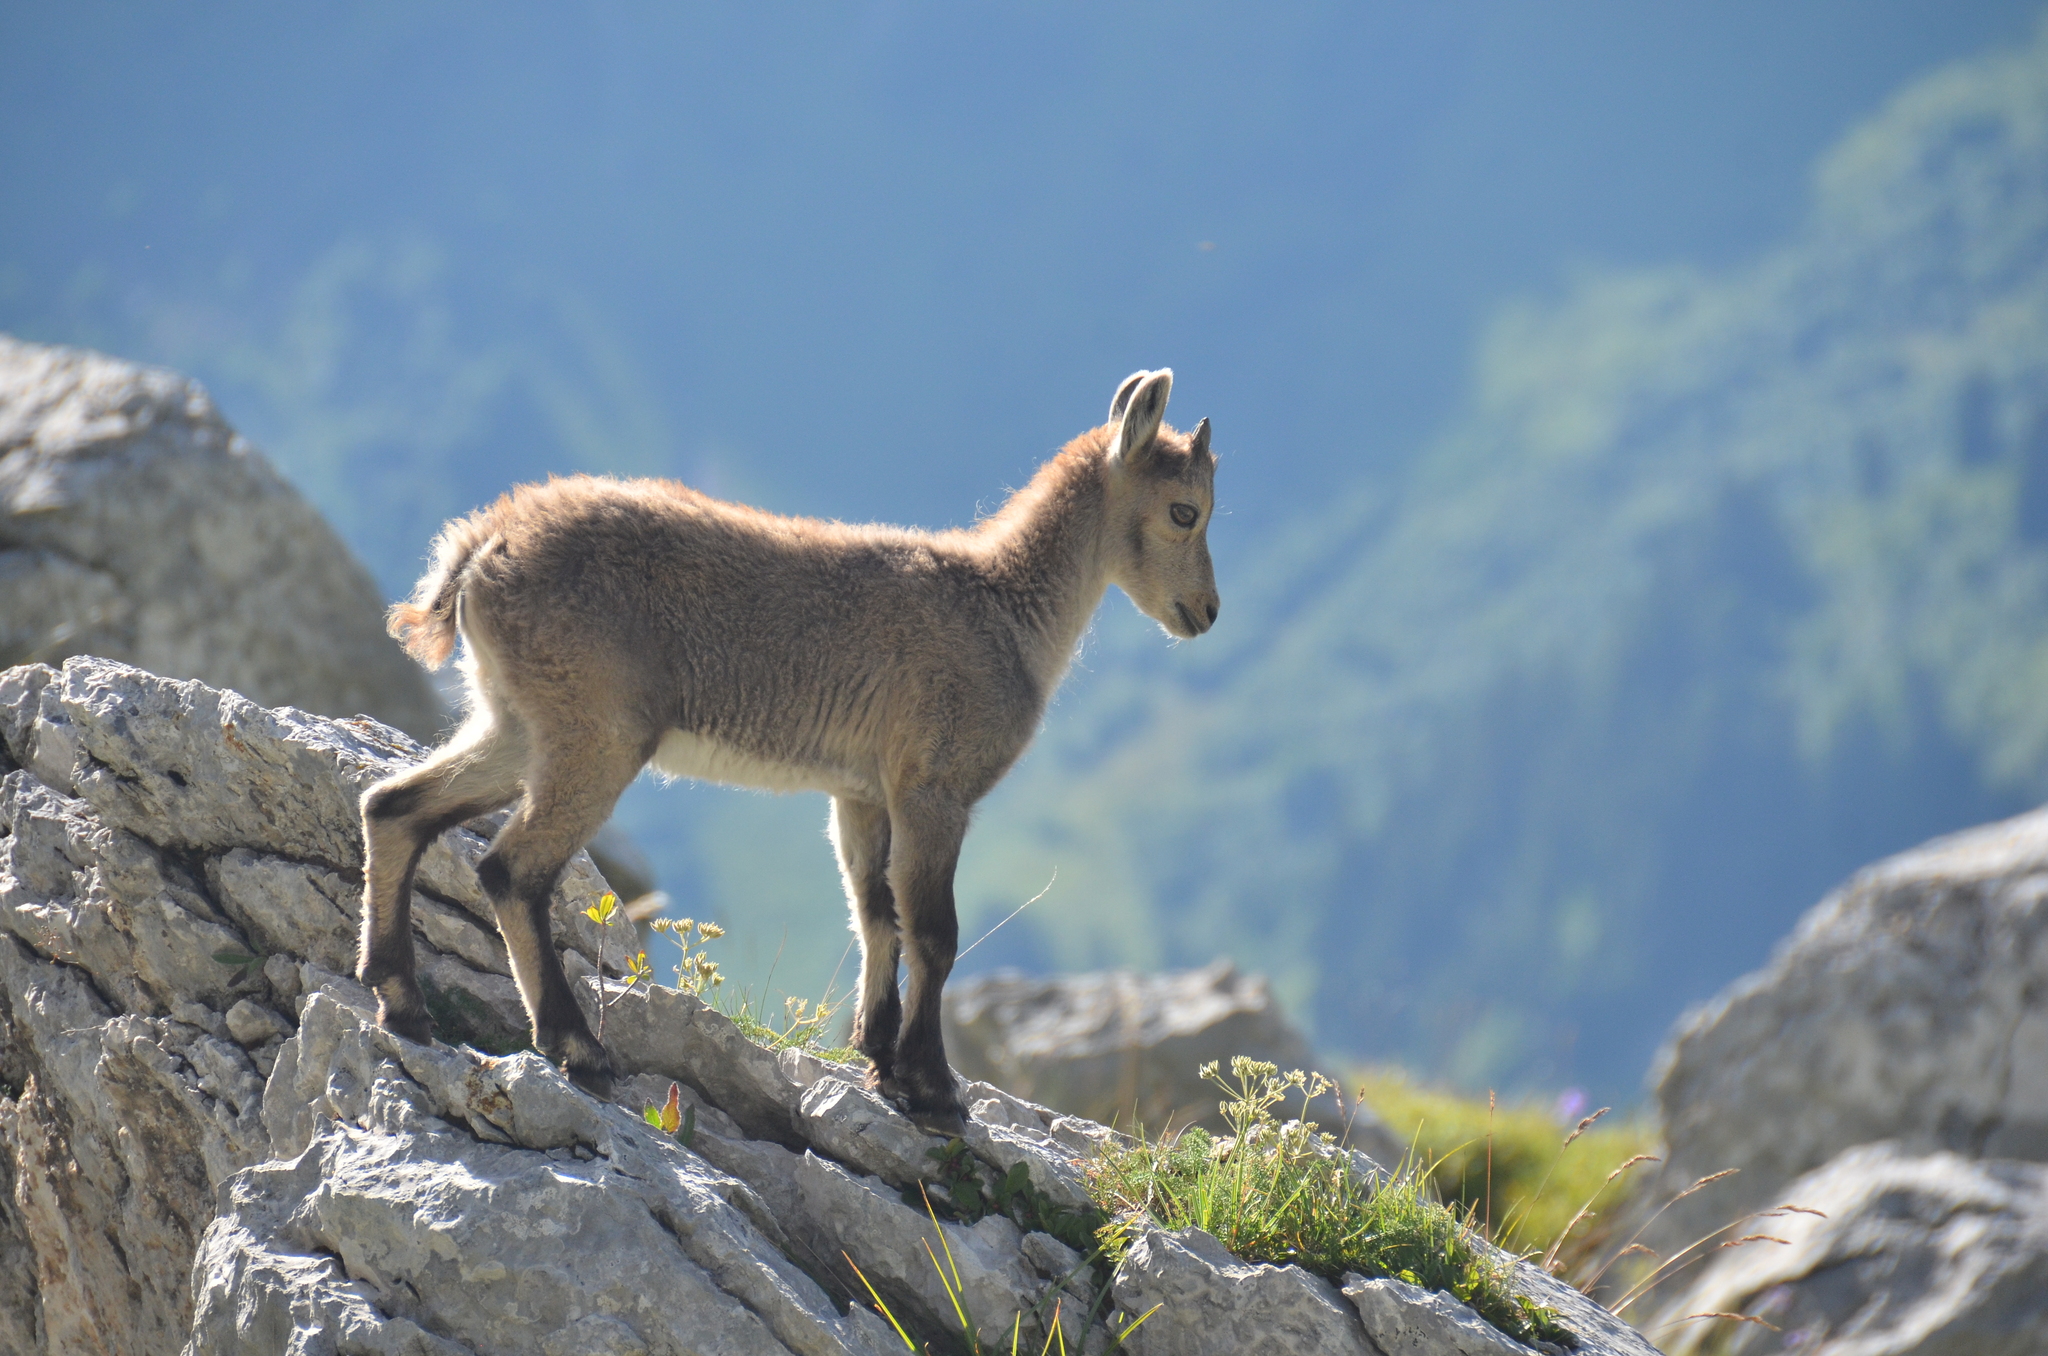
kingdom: Animalia
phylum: Chordata
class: Mammalia
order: Artiodactyla
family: Bovidae
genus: Capra
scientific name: Capra ibex
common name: Alpine ibex
